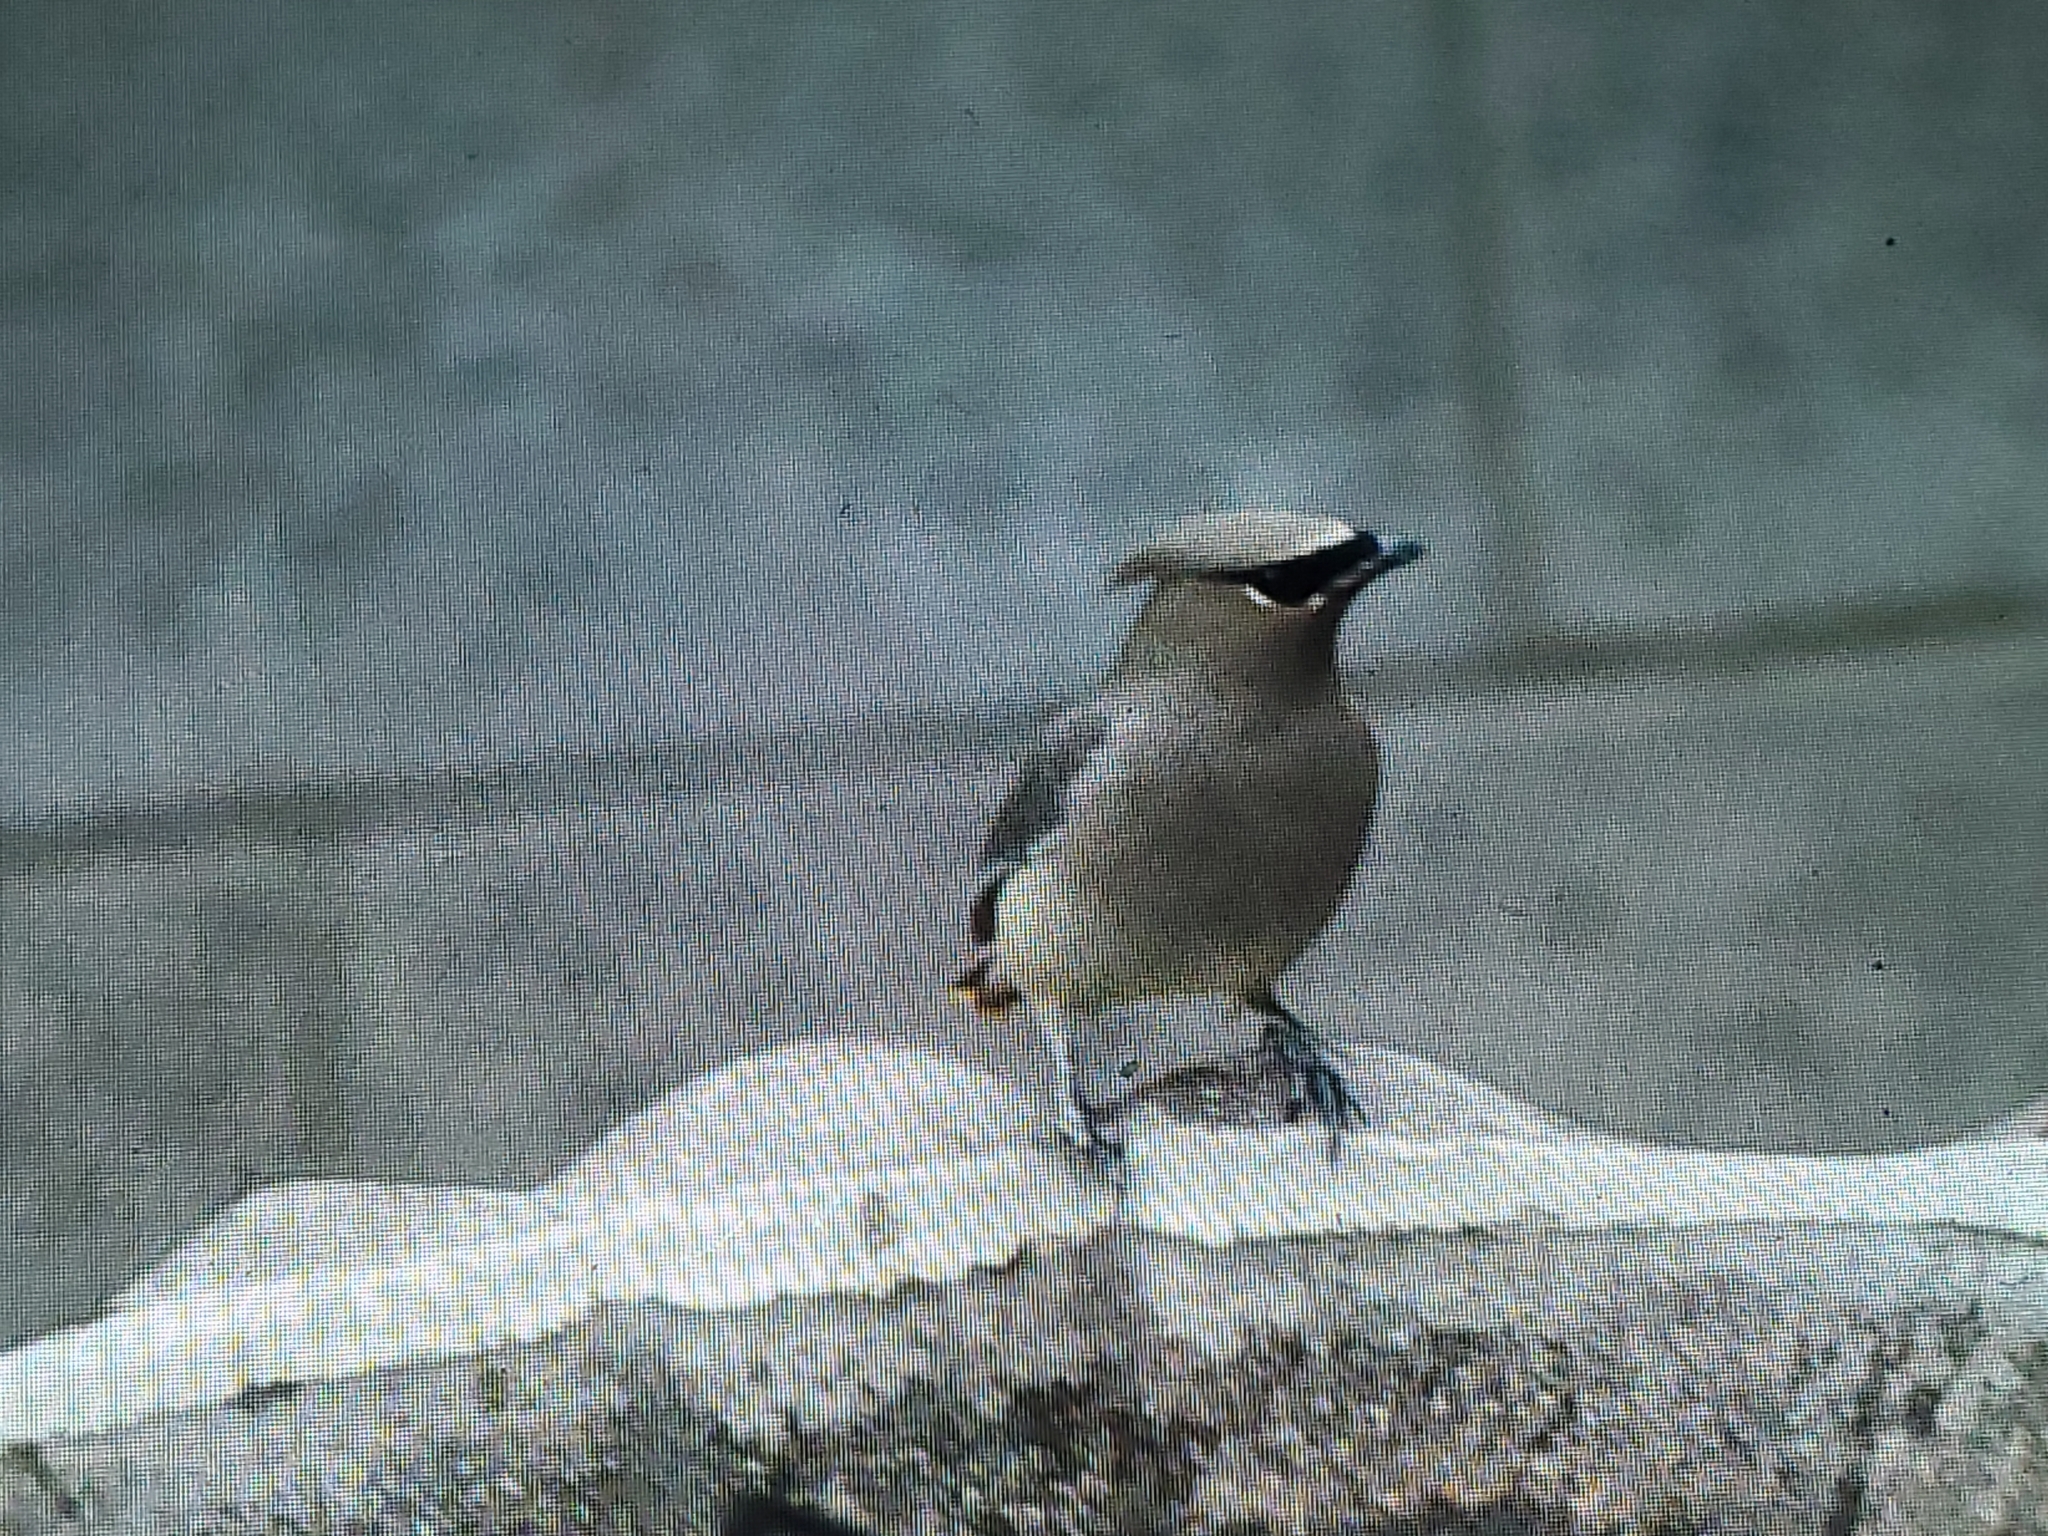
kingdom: Animalia
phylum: Chordata
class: Aves
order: Passeriformes
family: Bombycillidae
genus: Bombycilla
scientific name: Bombycilla cedrorum
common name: Cedar waxwing
